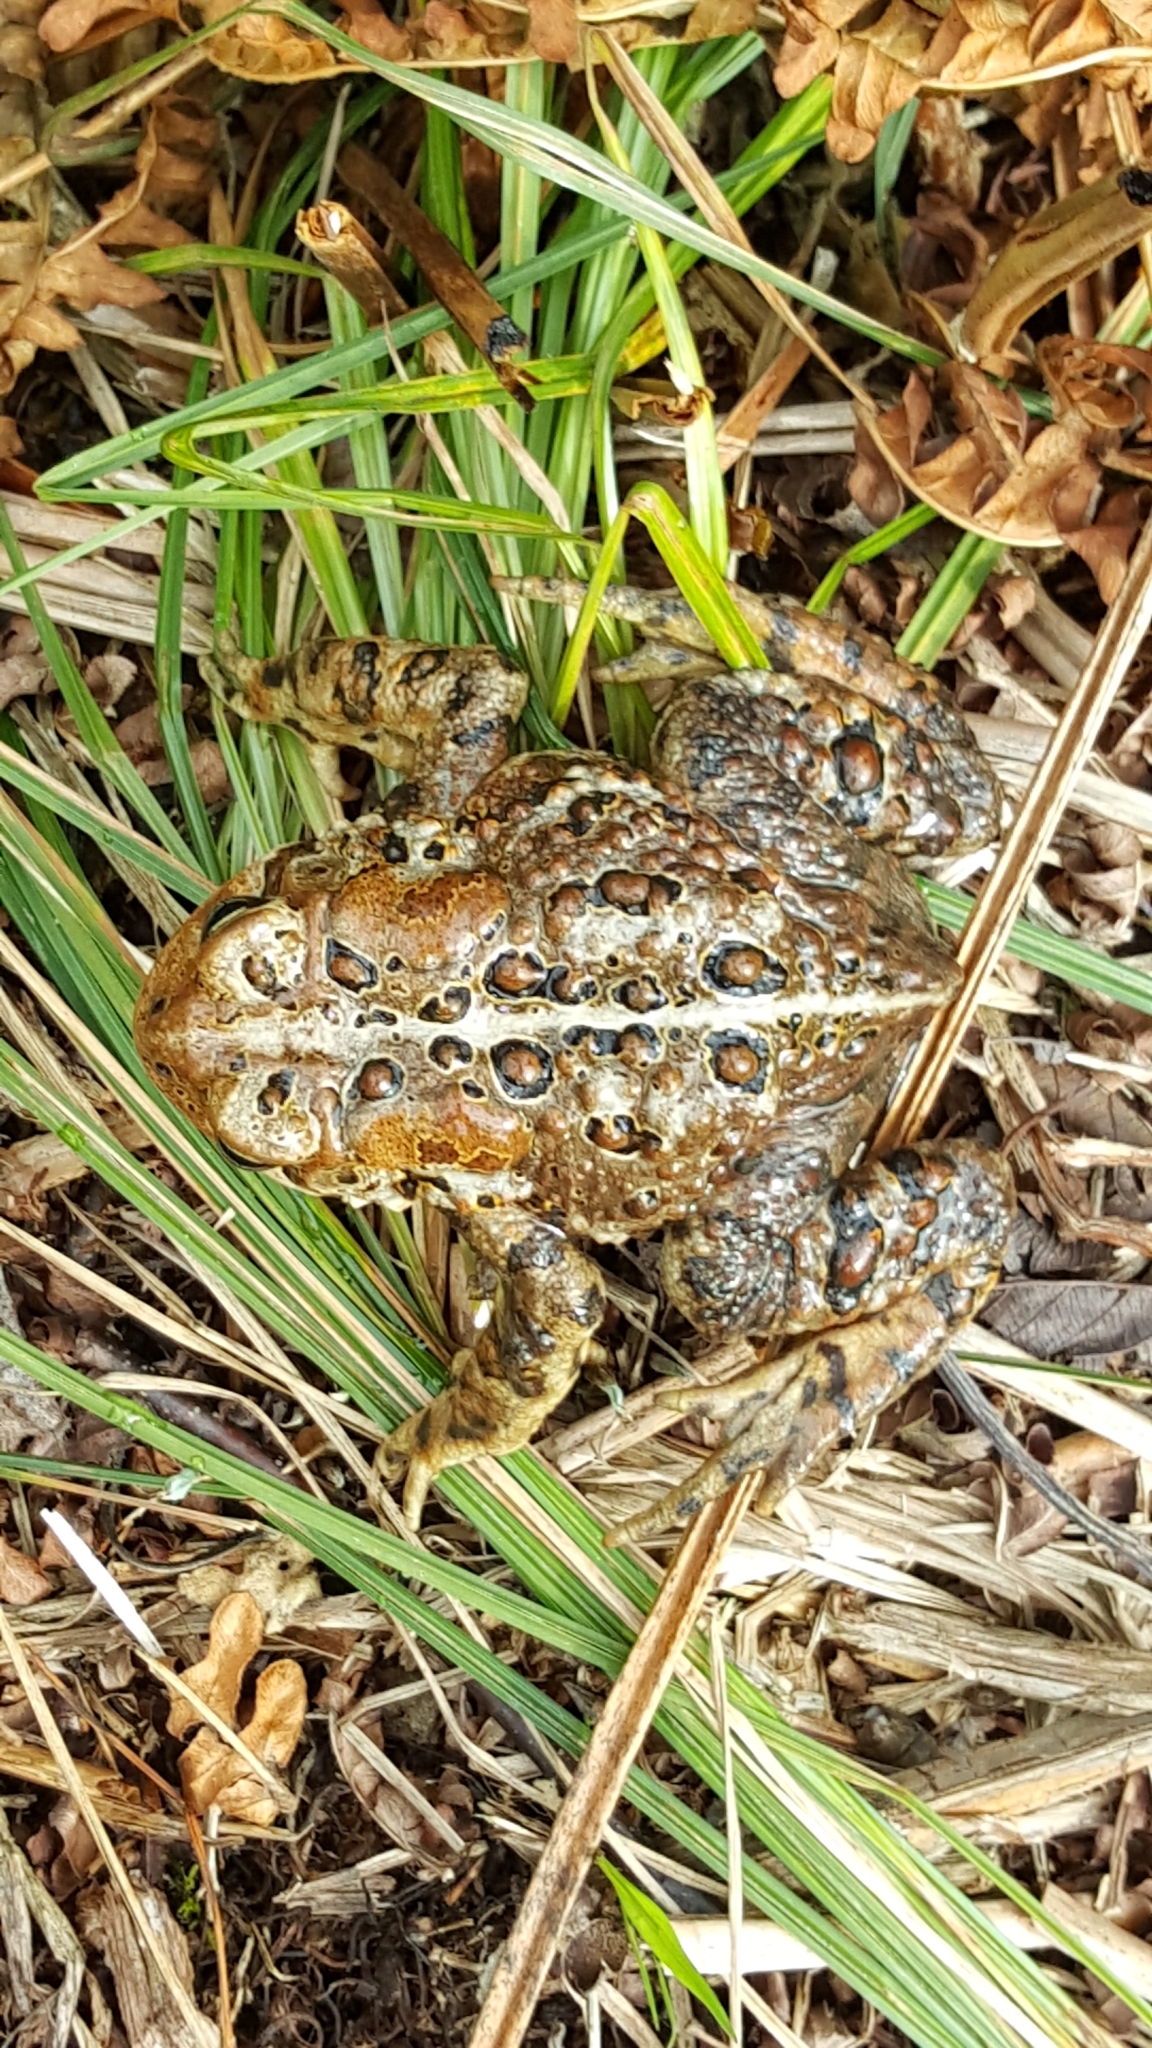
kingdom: Animalia
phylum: Chordata
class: Amphibia
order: Anura
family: Bufonidae
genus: Anaxyrus
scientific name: Anaxyrus americanus
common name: American toad
